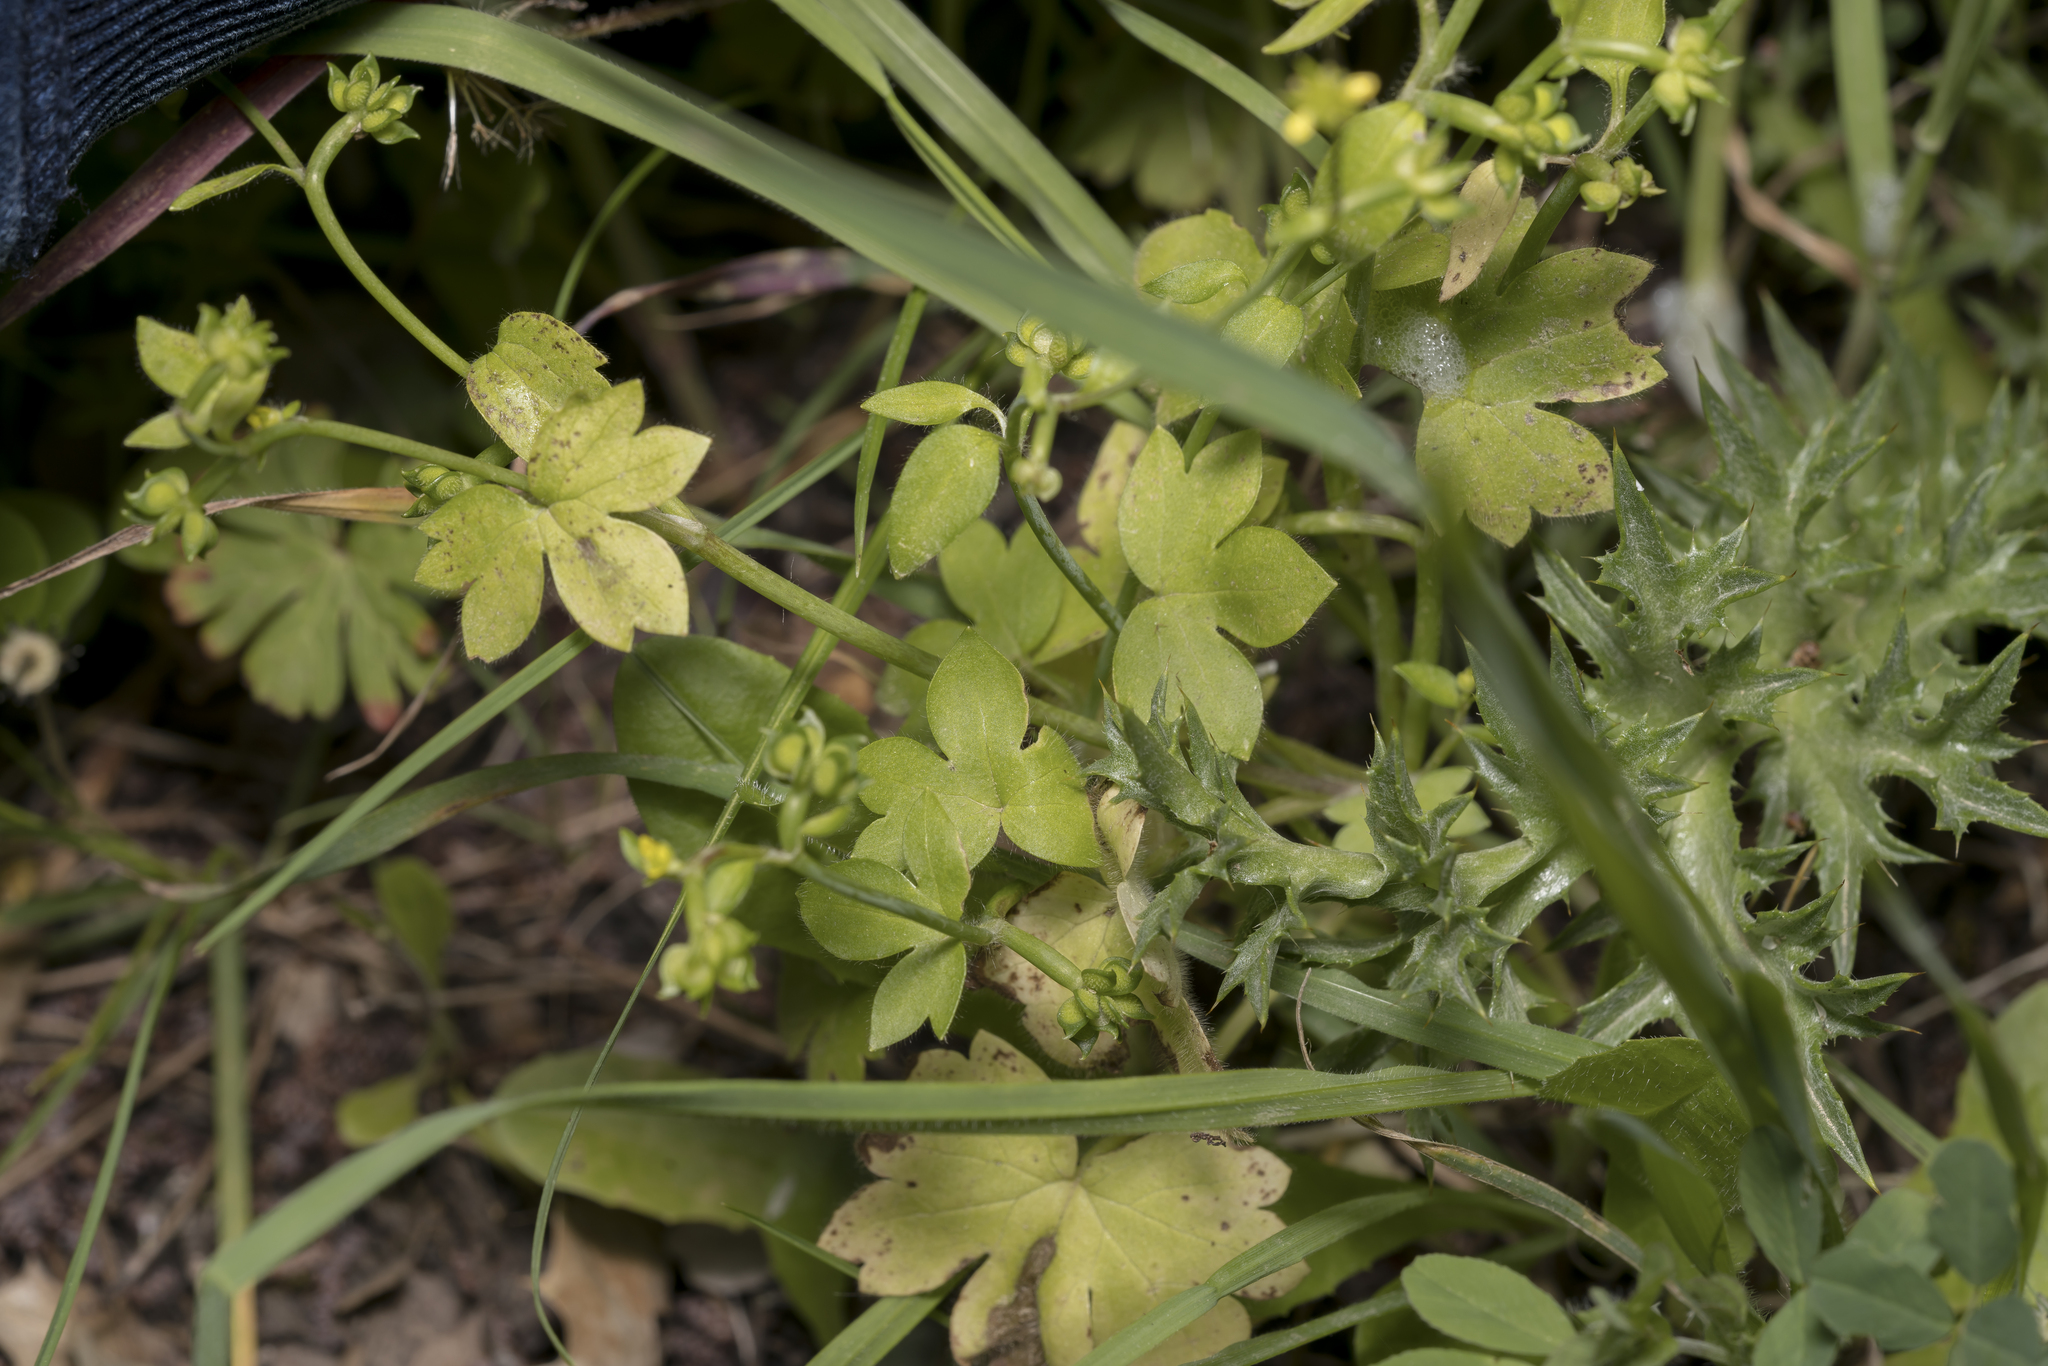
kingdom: Plantae
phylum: Tracheophyta
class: Magnoliopsida
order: Ranunculales
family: Ranunculaceae
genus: Ranunculus
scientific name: Ranunculus chius
